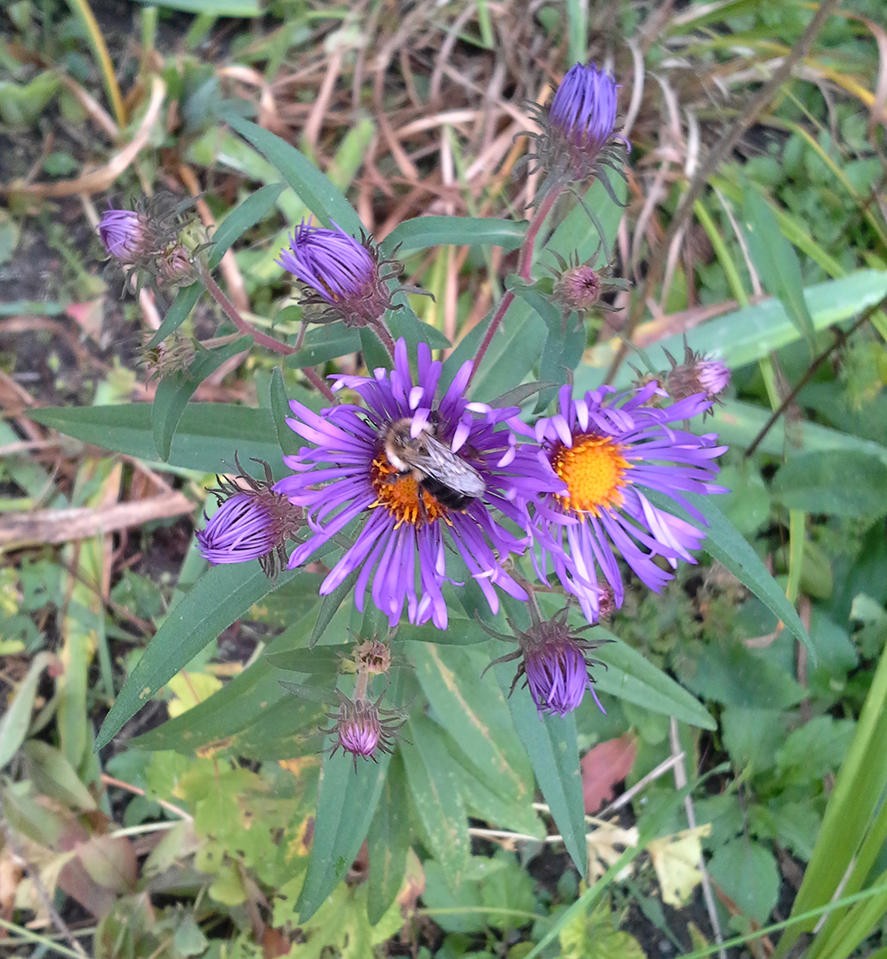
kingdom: Plantae
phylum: Tracheophyta
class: Magnoliopsida
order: Asterales
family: Asteraceae
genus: Symphyotrichum
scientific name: Symphyotrichum novae-angliae
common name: Michaelmas daisy
